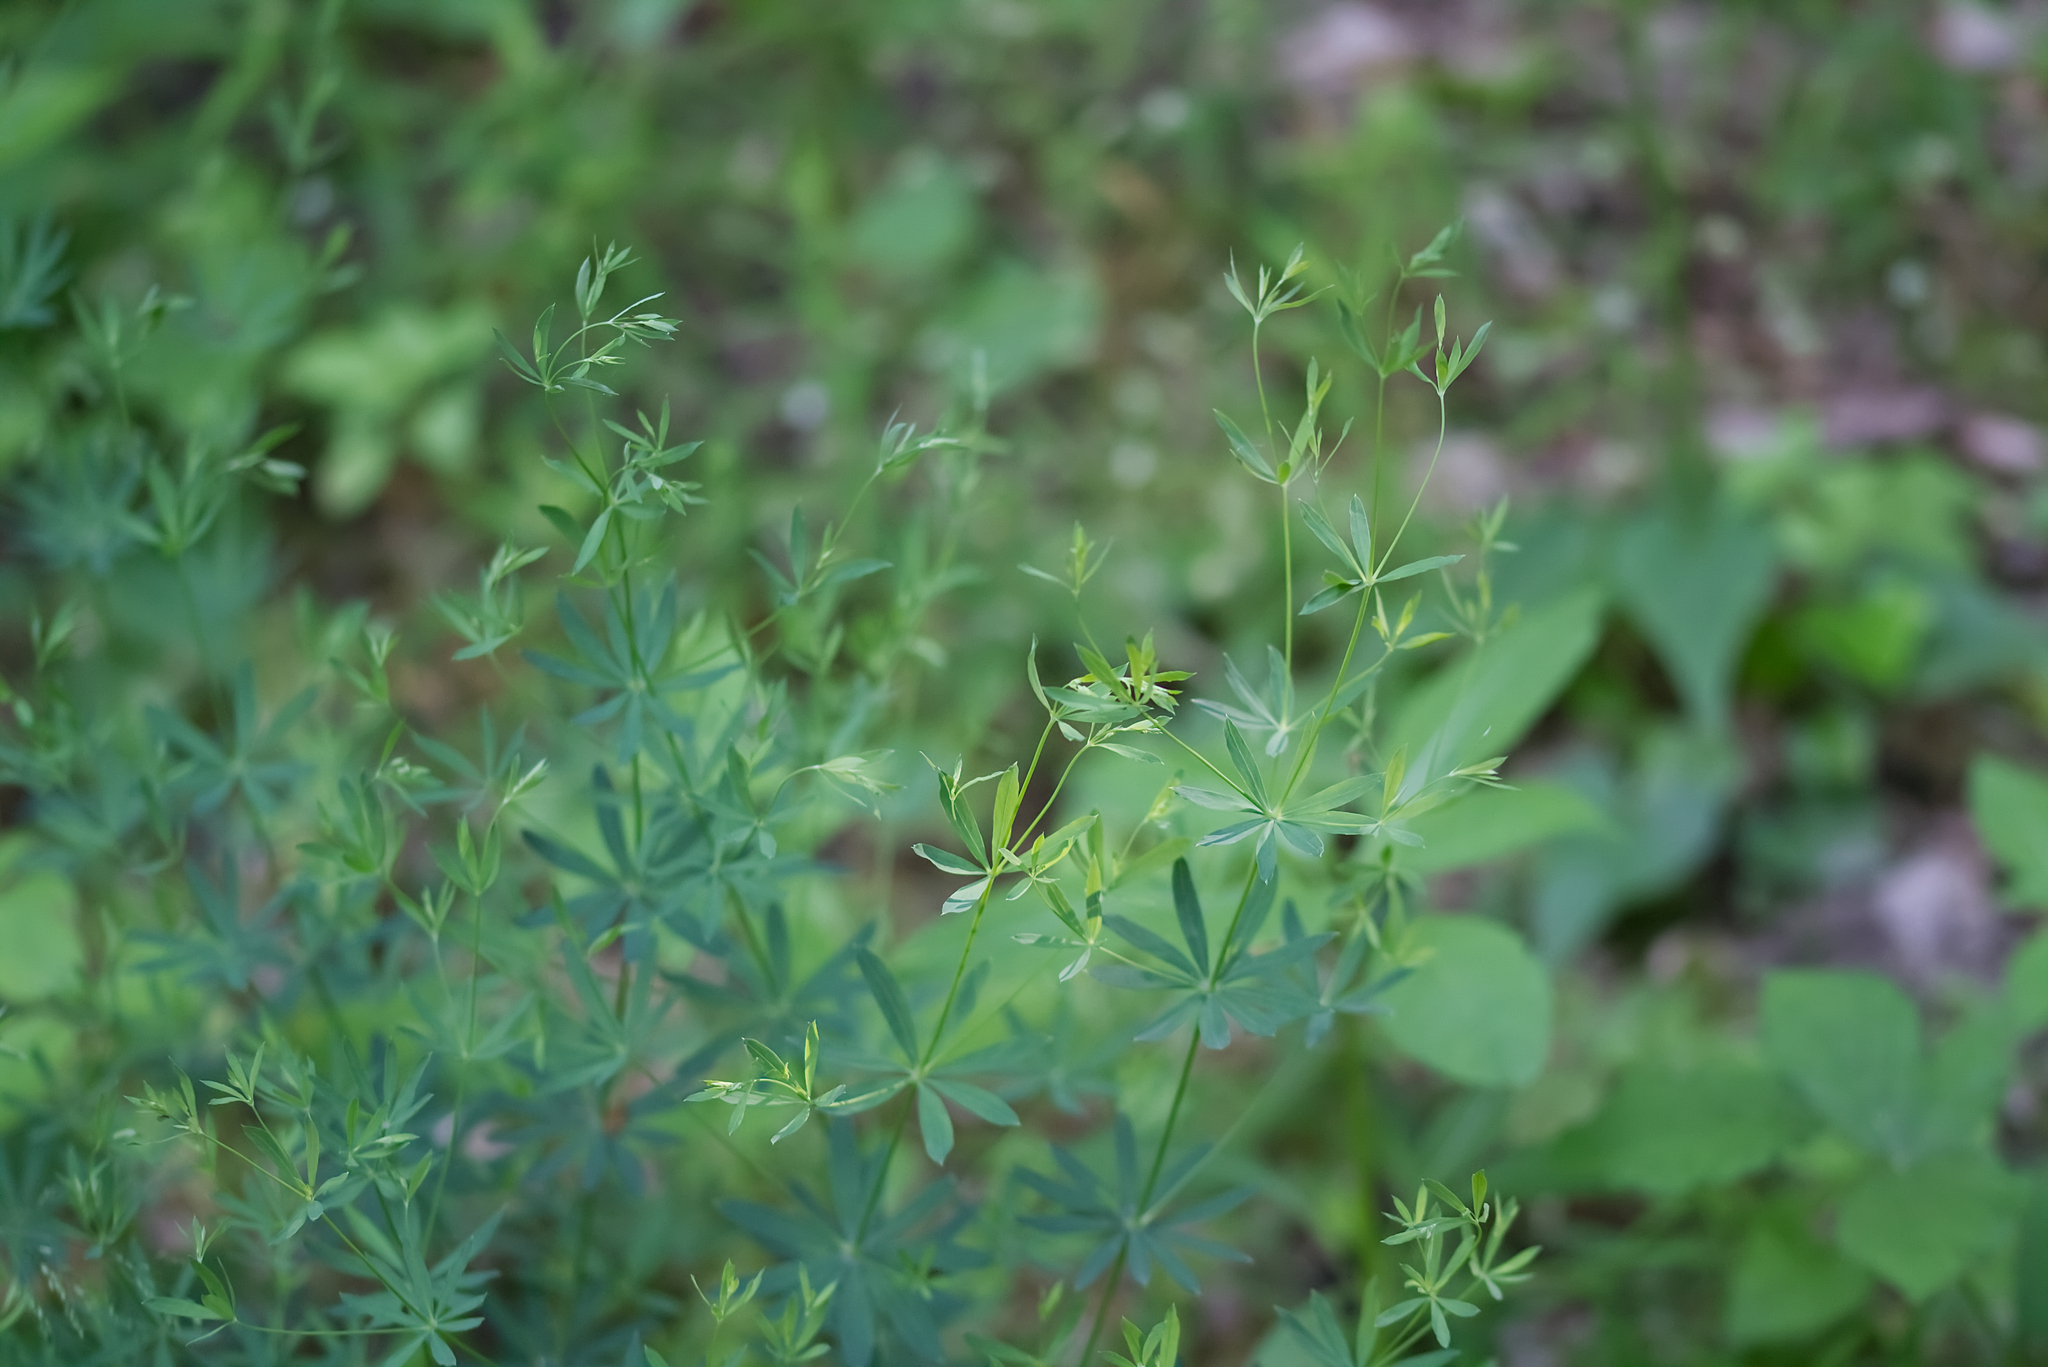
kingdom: Plantae
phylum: Tracheophyta
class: Magnoliopsida
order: Gentianales
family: Rubiaceae
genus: Galium
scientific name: Galium sylvaticum
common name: Wood bedstraw
